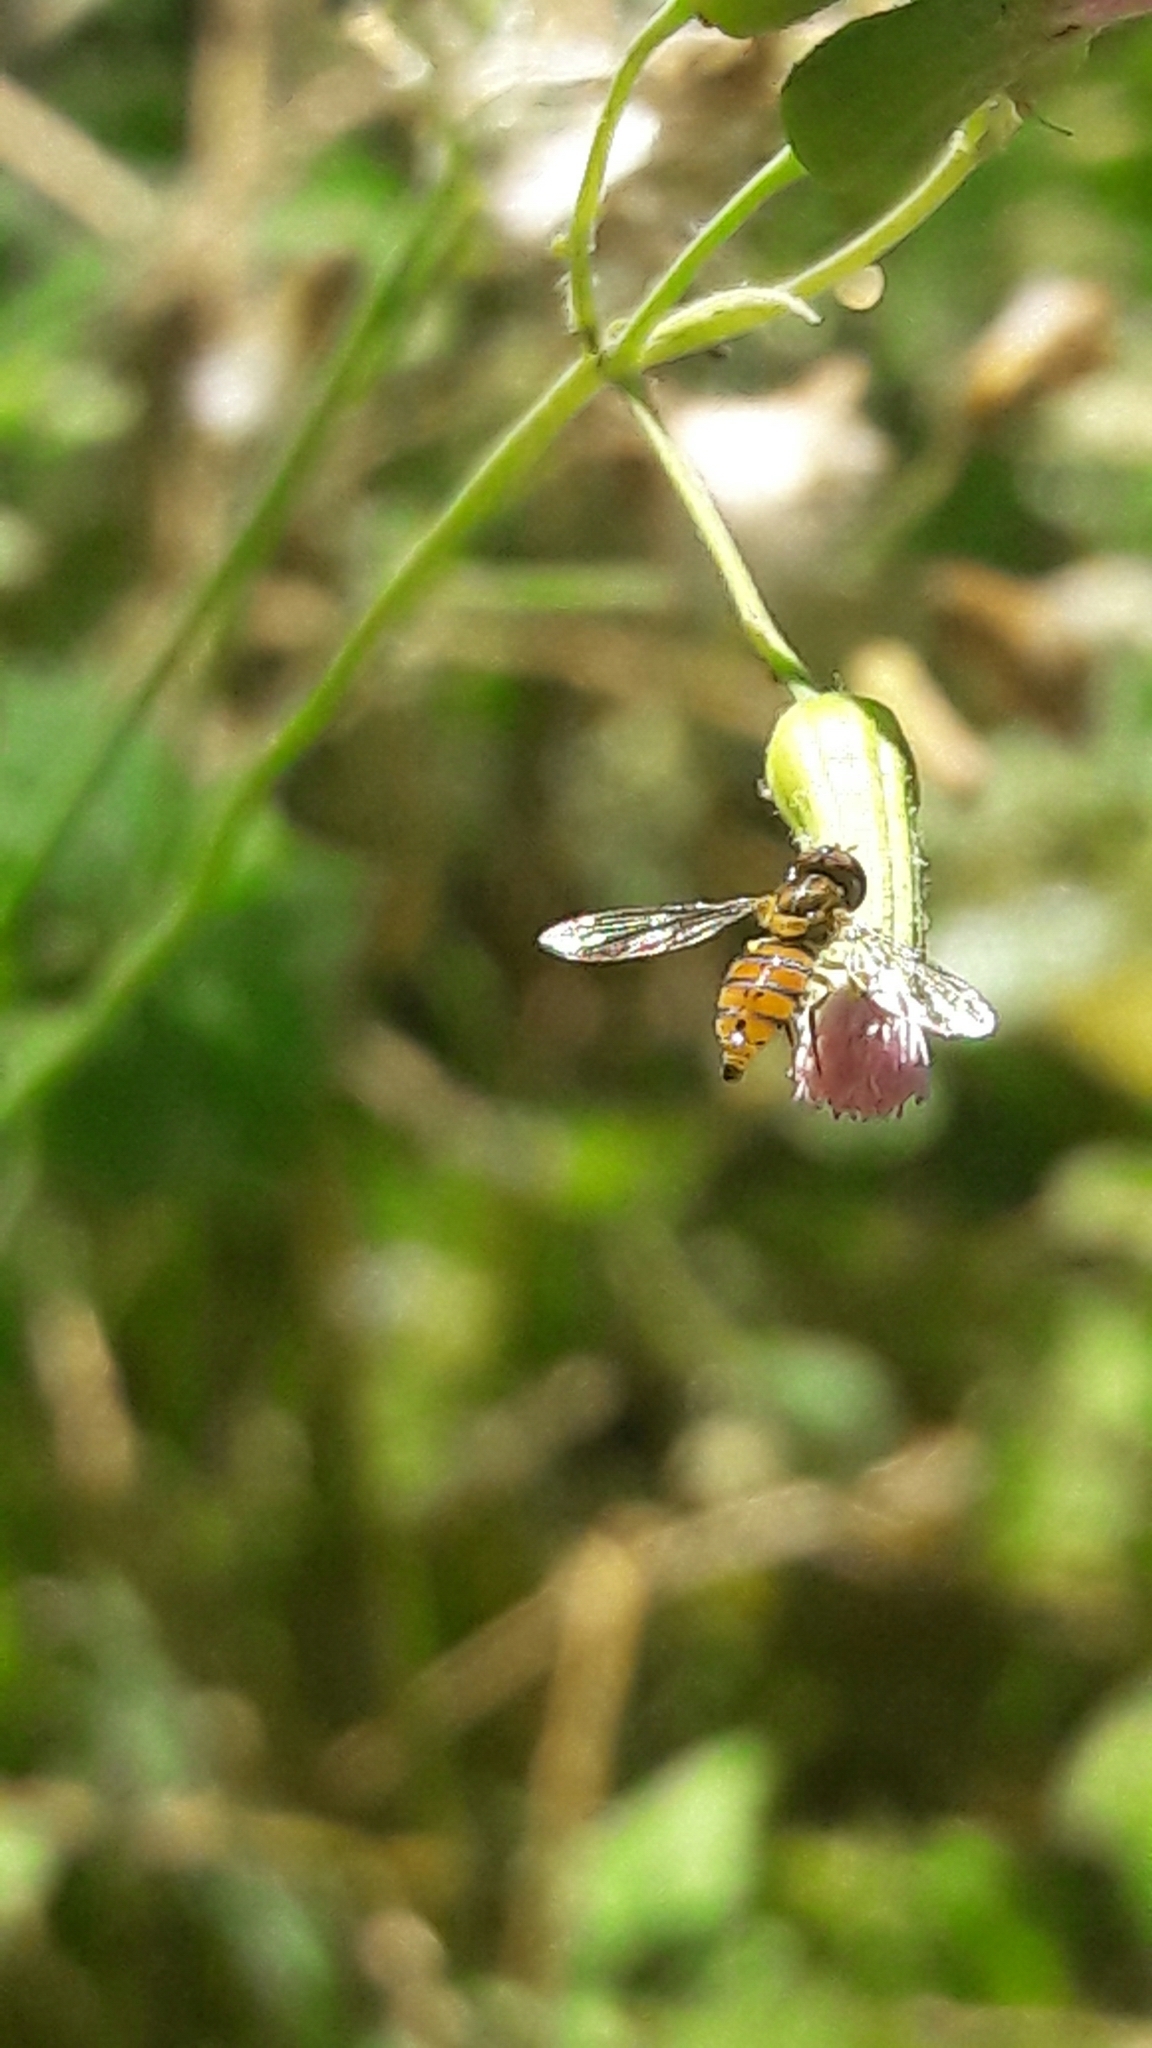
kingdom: Animalia
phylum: Arthropoda
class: Insecta
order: Diptera
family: Syrphidae
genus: Toxomerus
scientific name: Toxomerus
